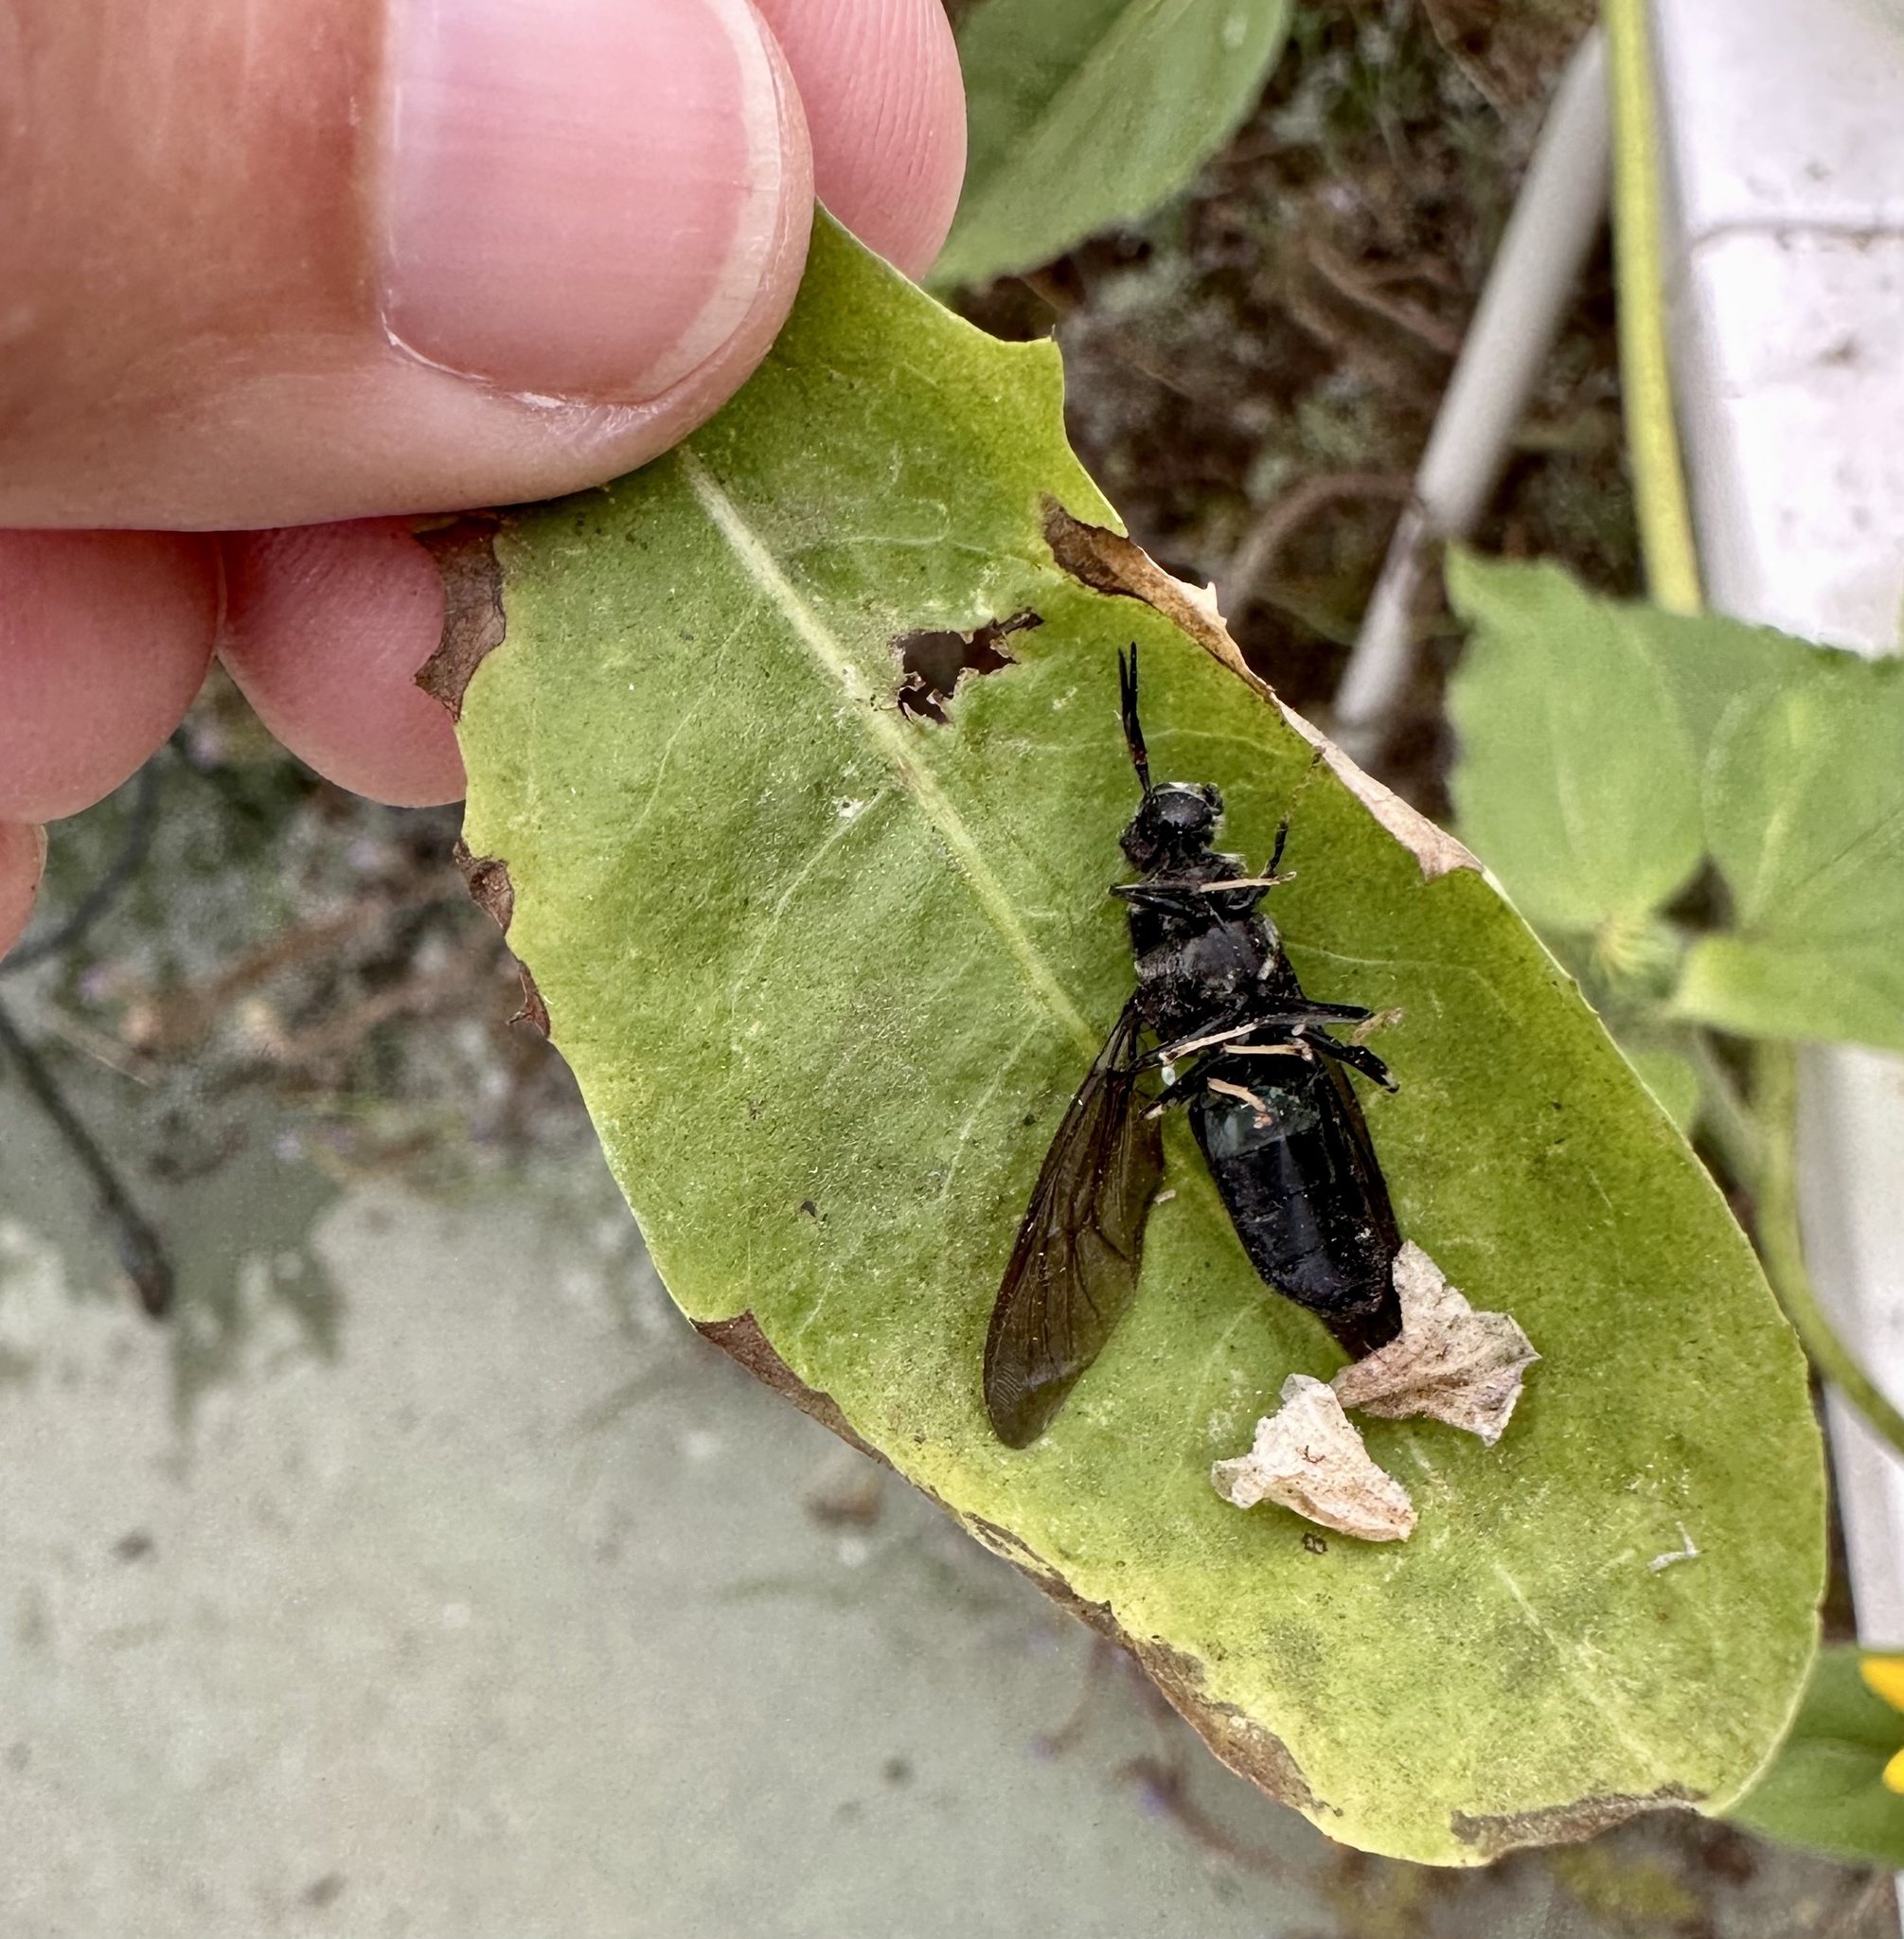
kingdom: Animalia
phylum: Arthropoda
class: Insecta
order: Diptera
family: Stratiomyidae
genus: Hermetia
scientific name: Hermetia illucens
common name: Black soldier fly
